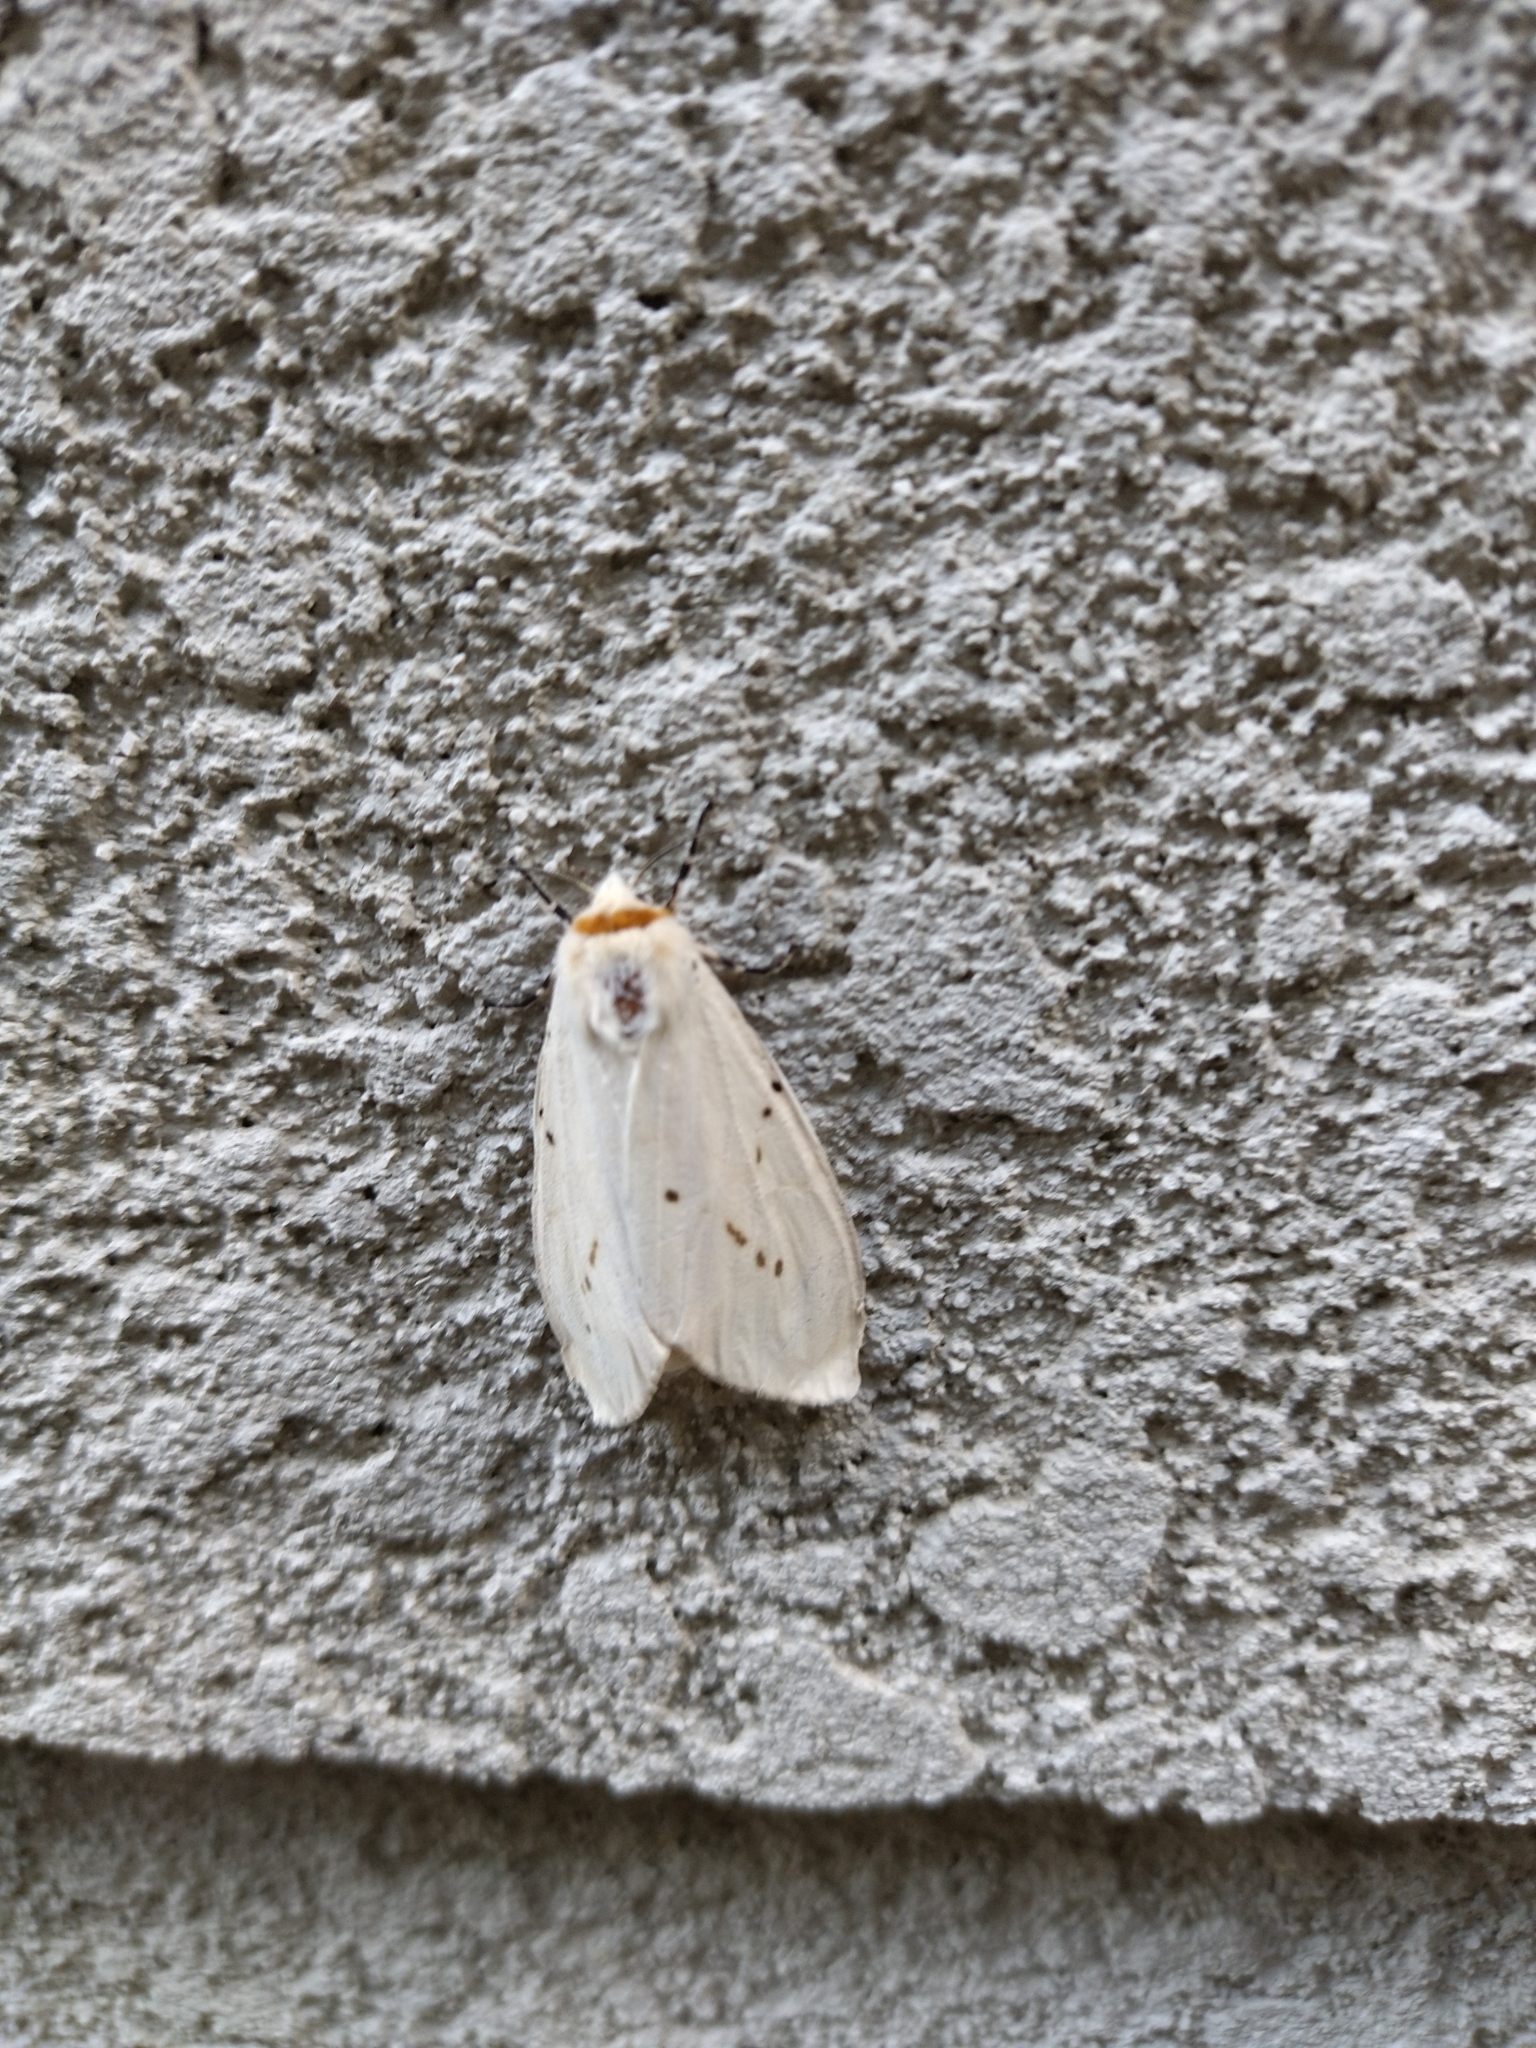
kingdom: Animalia
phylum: Arthropoda
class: Insecta
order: Lepidoptera
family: Erebidae
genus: Lemyra
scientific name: Lemyra imparilis
